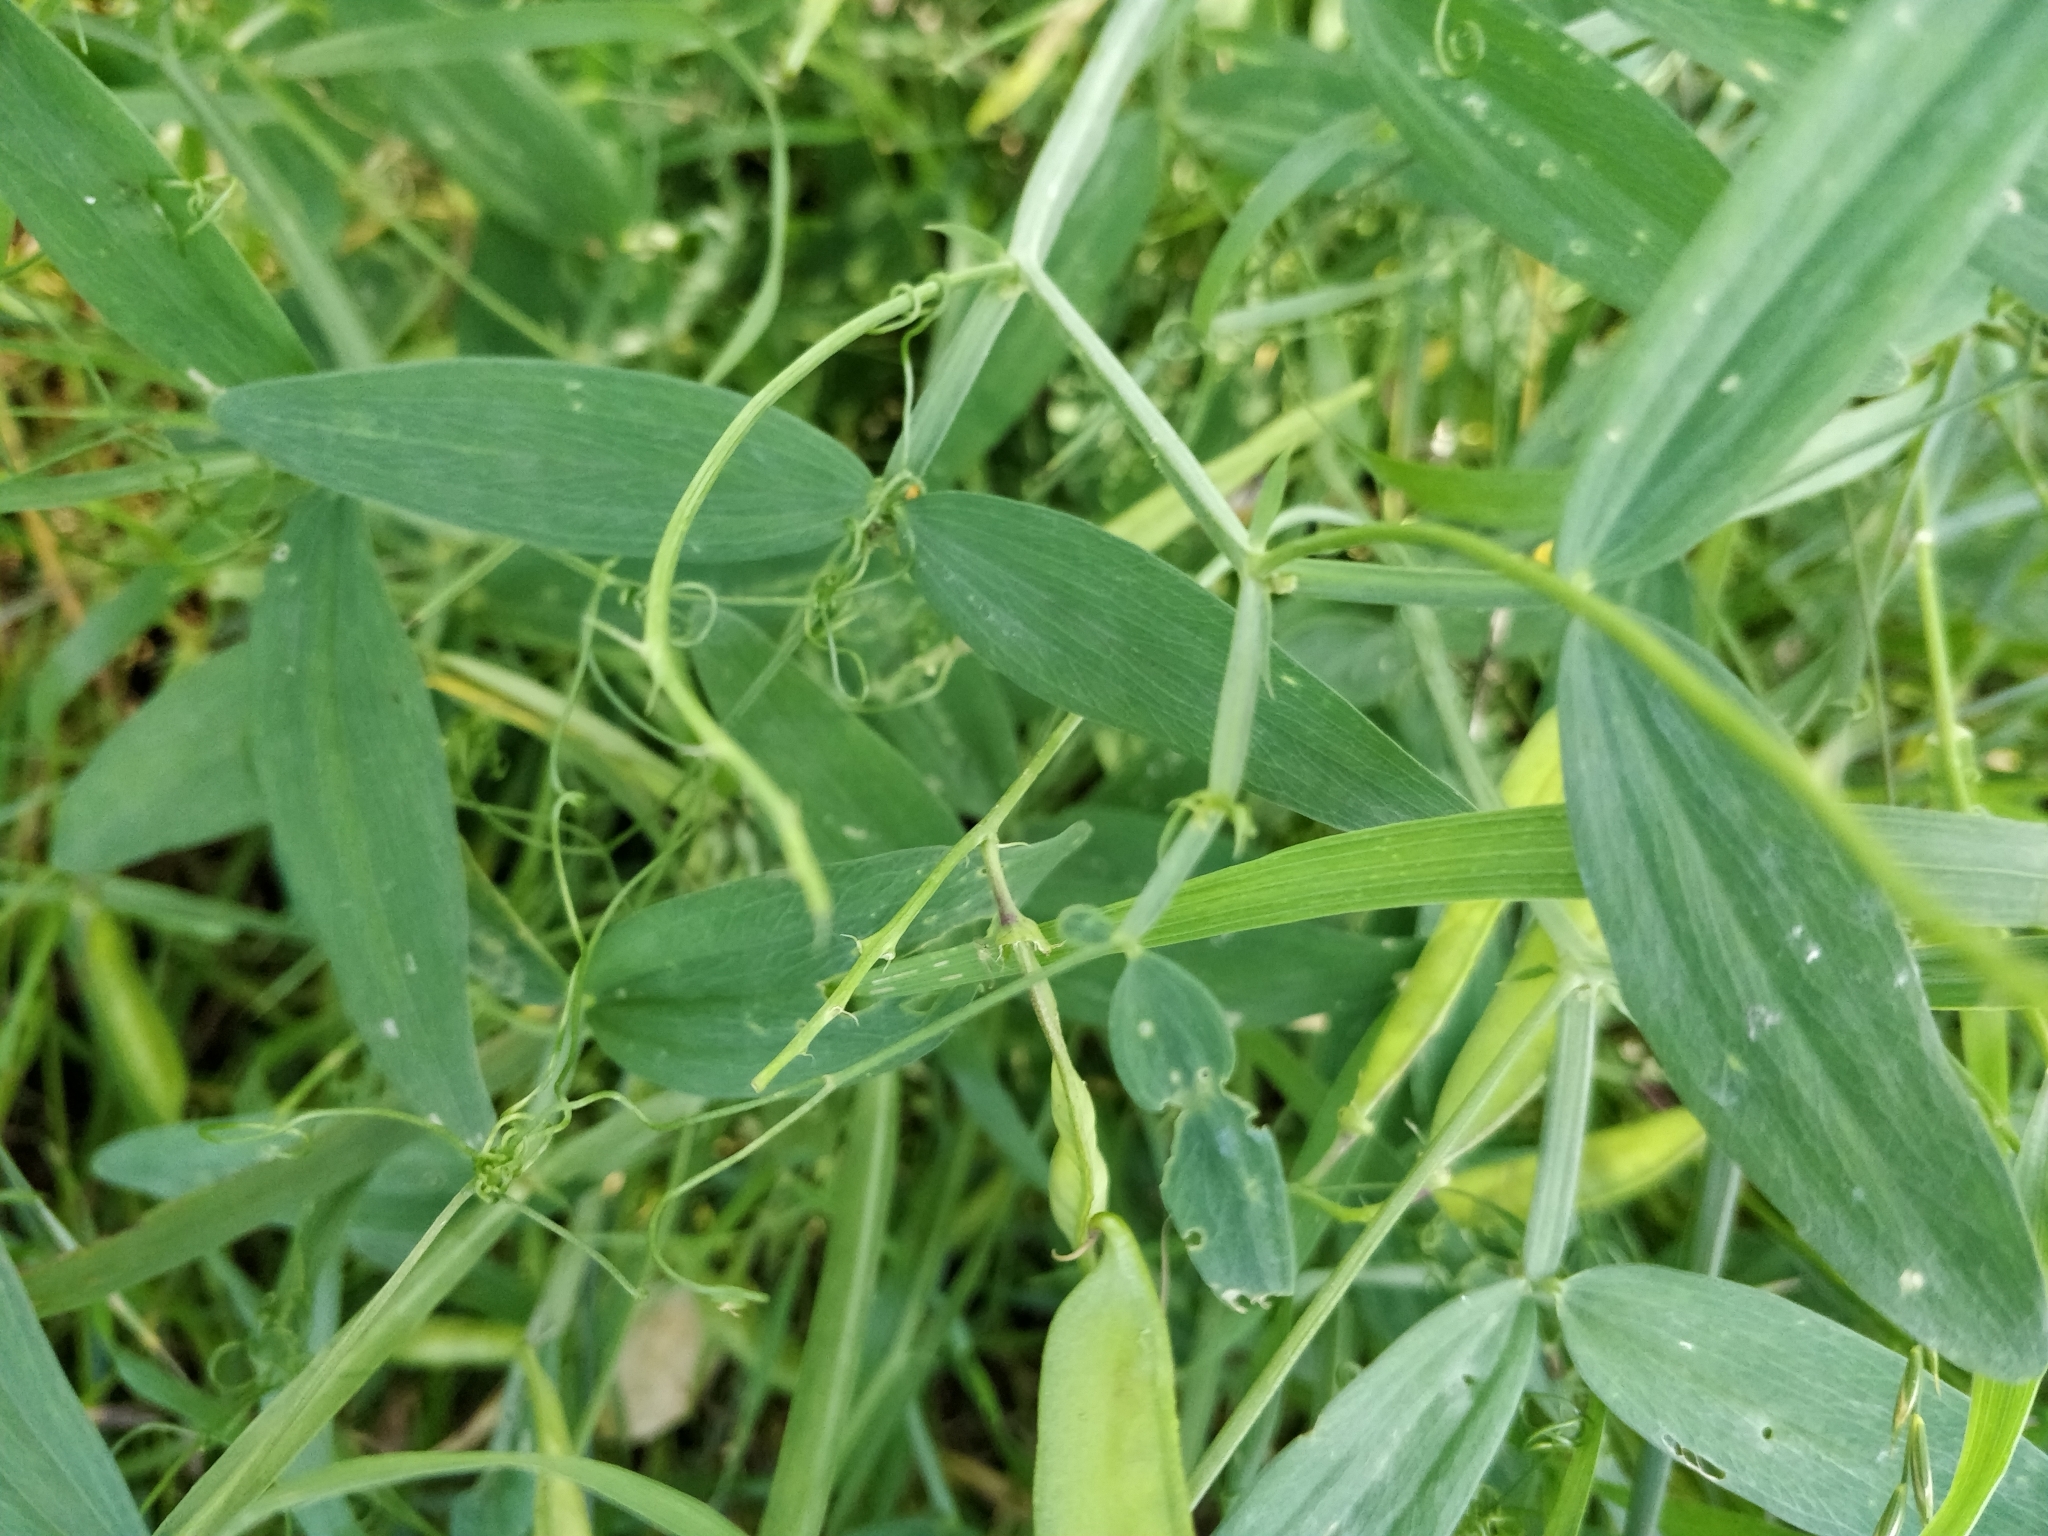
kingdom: Plantae
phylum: Tracheophyta
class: Magnoliopsida
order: Fabales
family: Fabaceae
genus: Lathyrus
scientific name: Lathyrus sylvestris
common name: Flat pea
